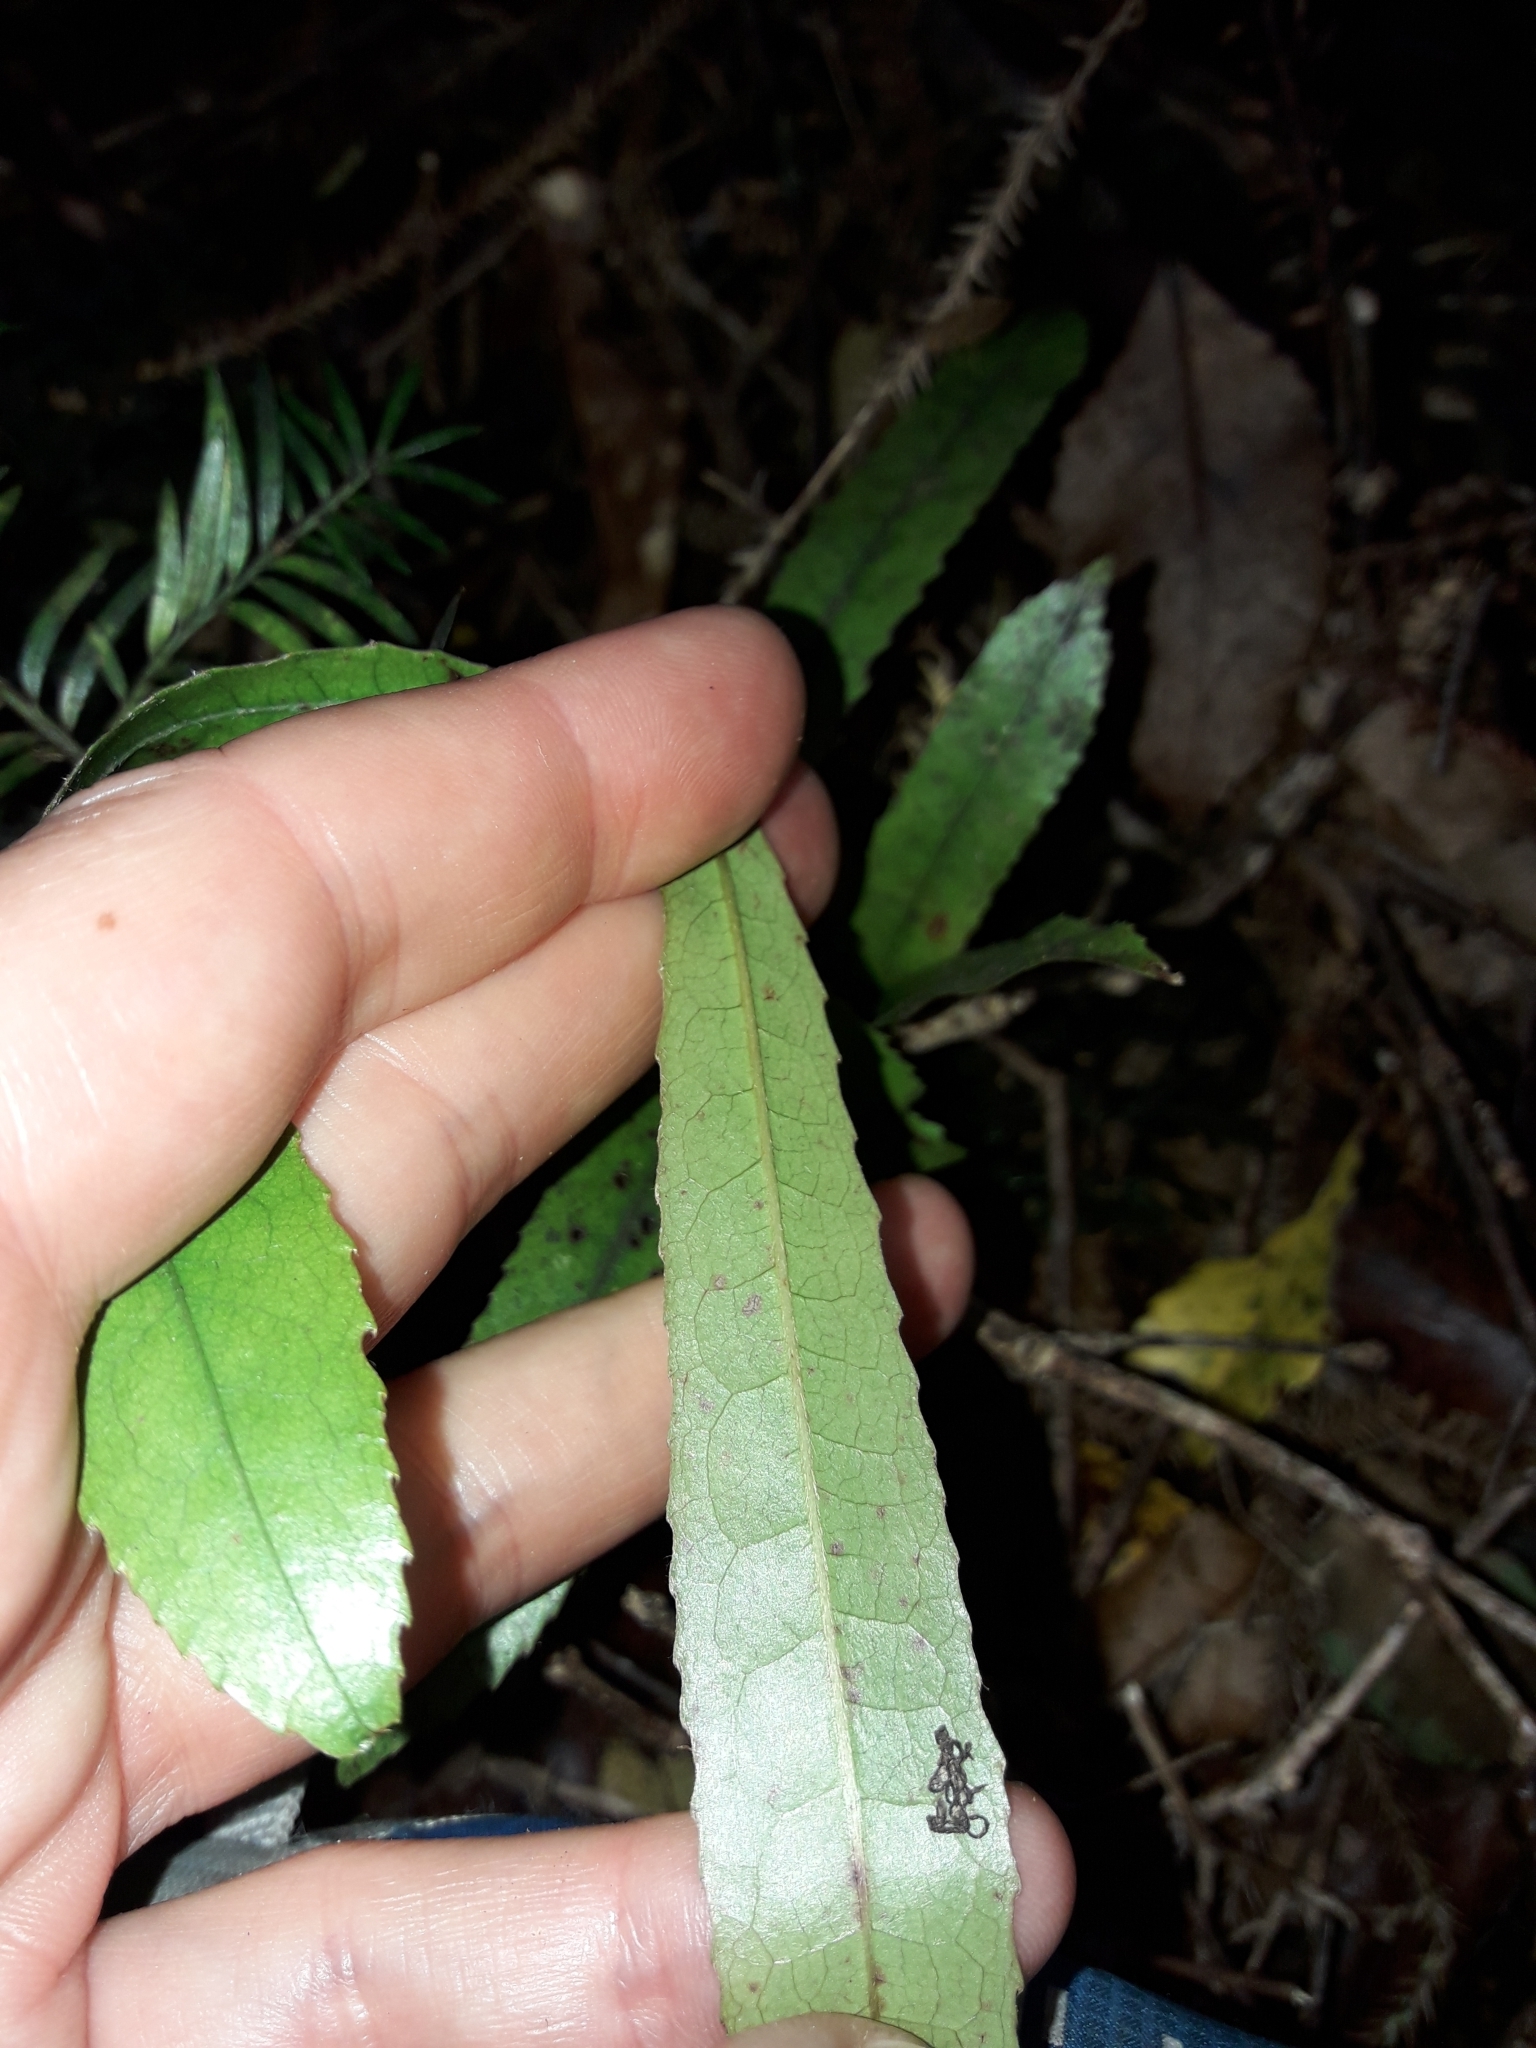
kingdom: Plantae
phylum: Tracheophyta
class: Magnoliopsida
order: Oxalidales
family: Elaeocarpaceae
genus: Elaeocarpus
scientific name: Elaeocarpus dentatus
